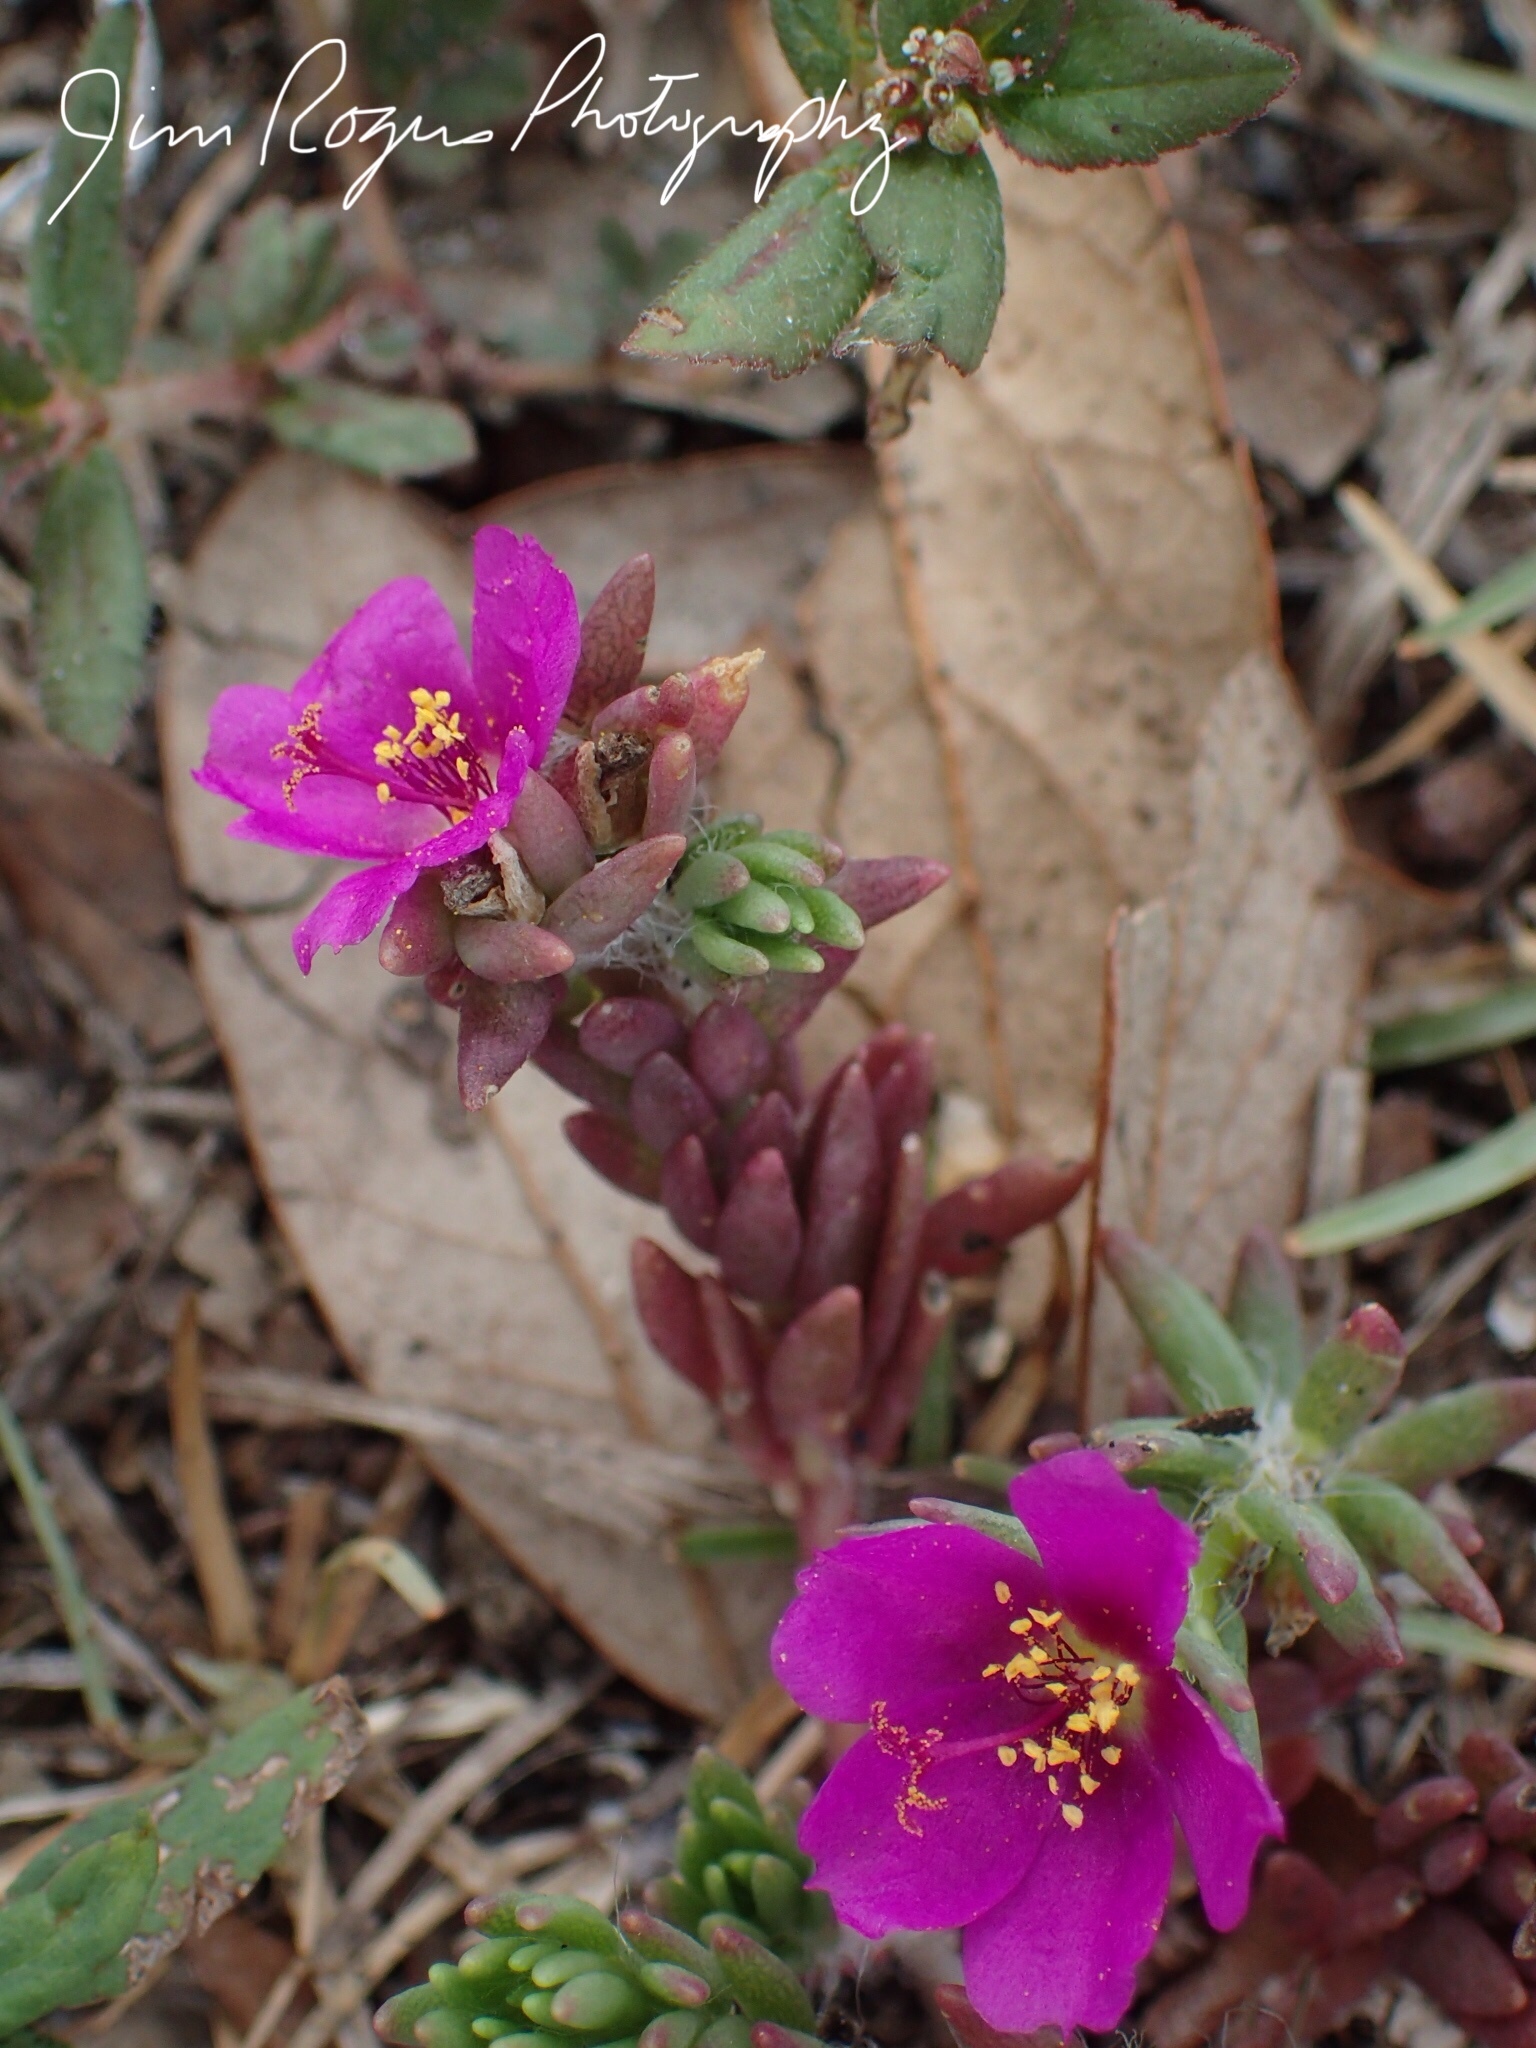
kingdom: Plantae
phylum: Tracheophyta
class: Magnoliopsida
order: Caryophyllales
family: Portulacaceae
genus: Portulaca
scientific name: Portulaca pilosa
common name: Kiss me quick
